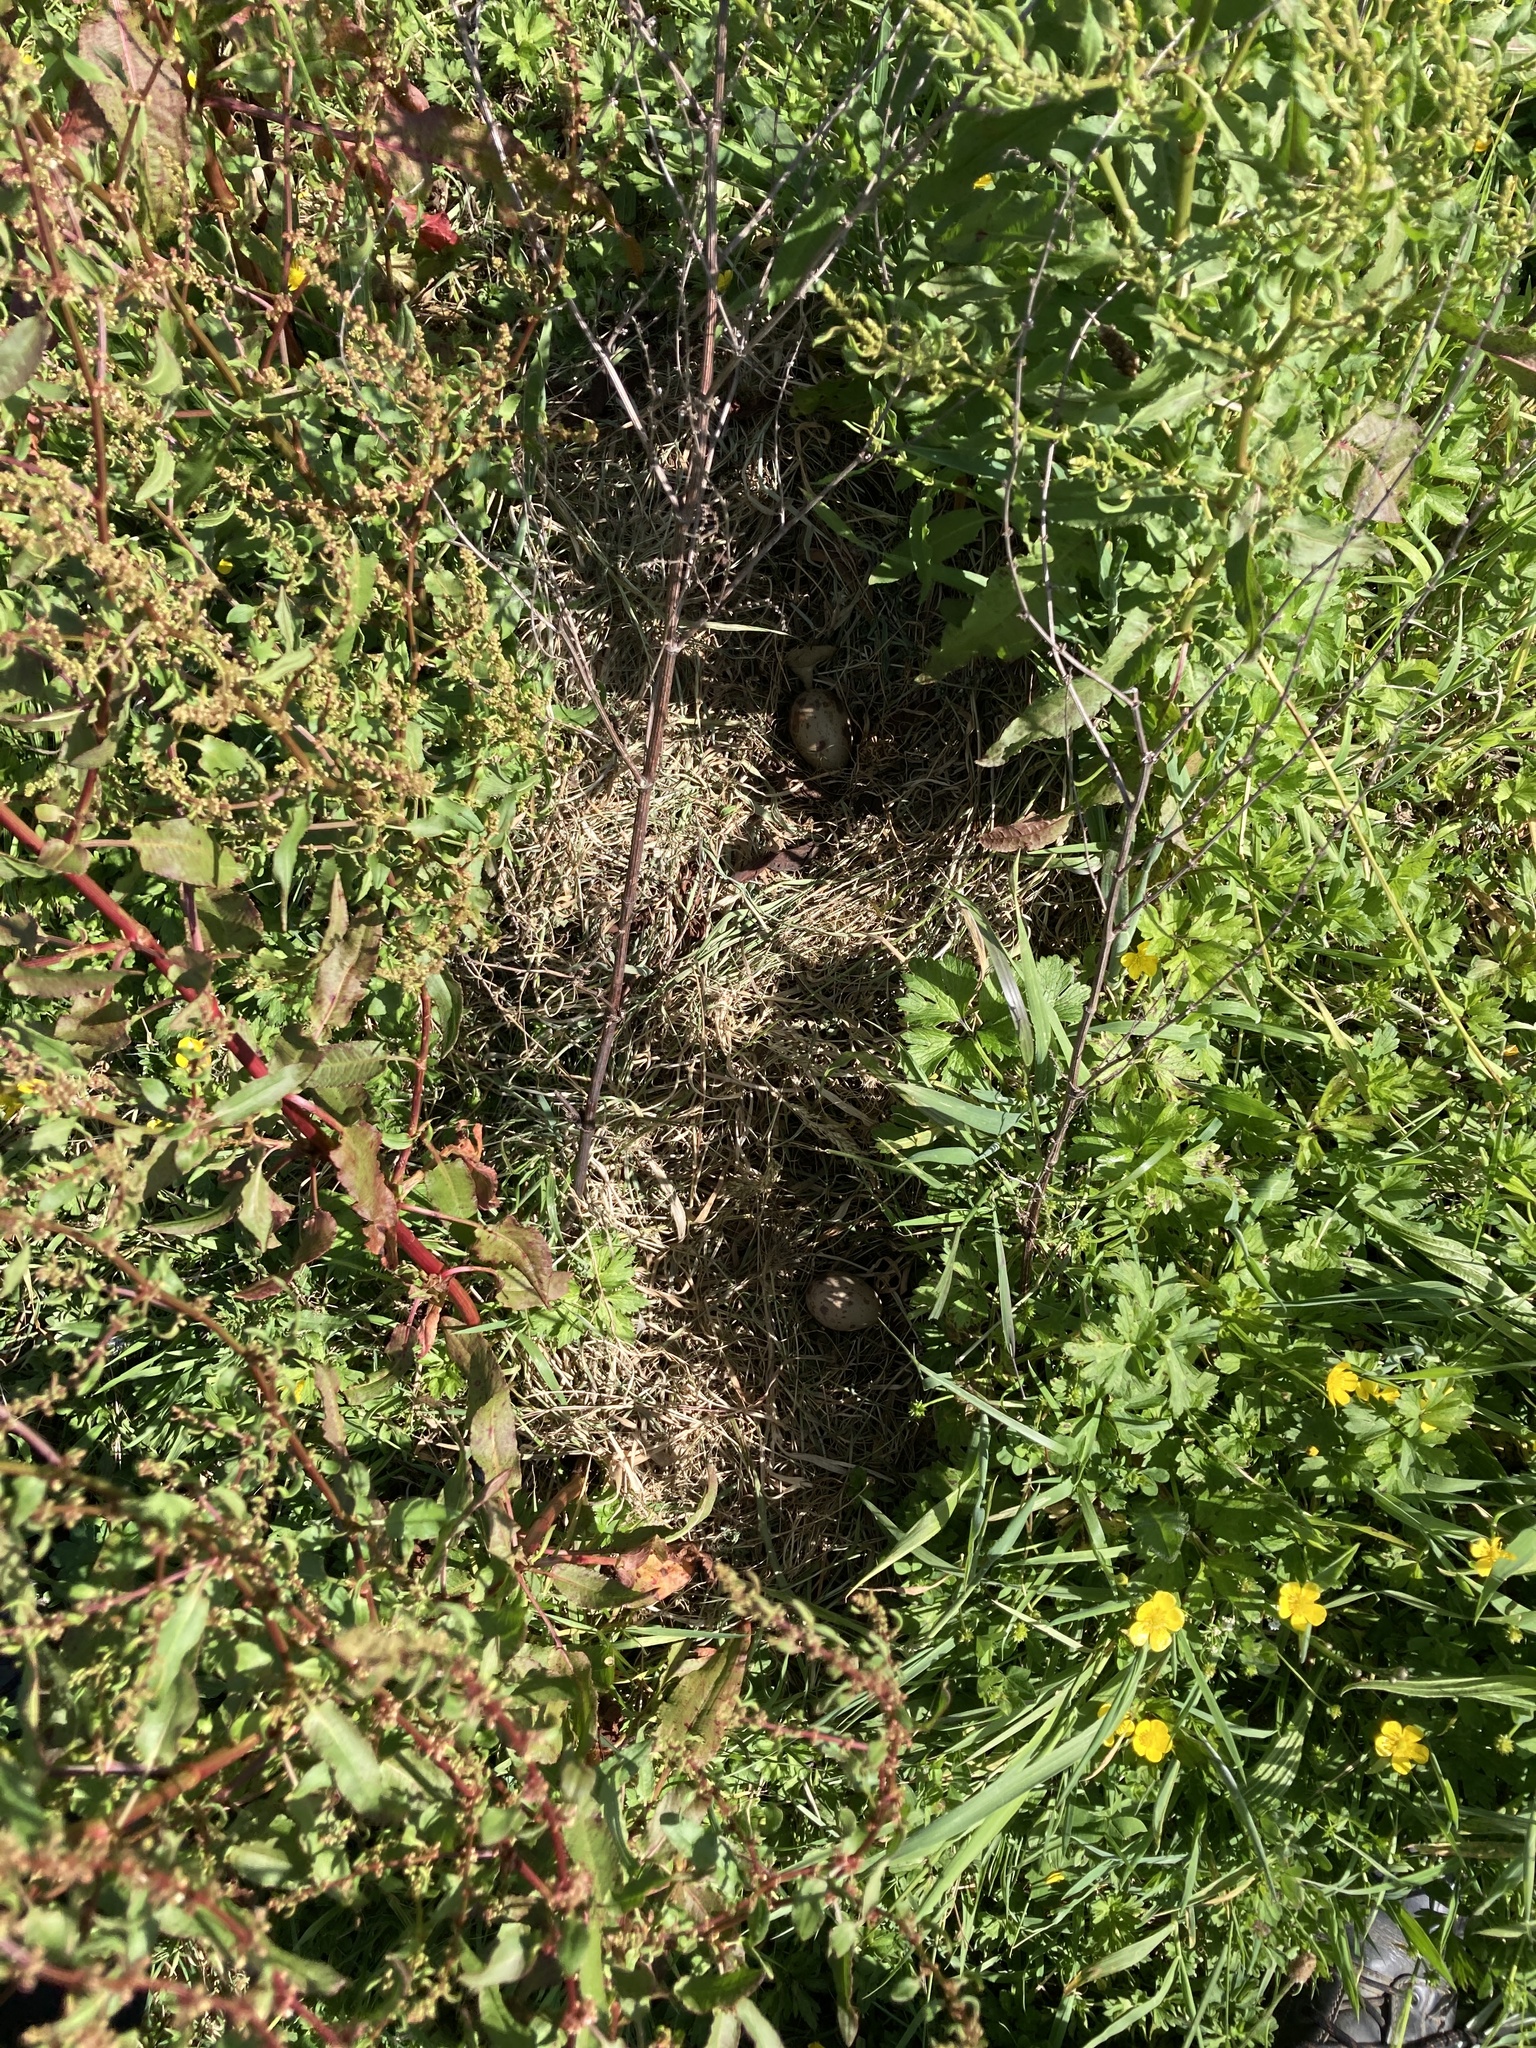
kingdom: Animalia
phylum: Chordata
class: Aves
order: Gruiformes
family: Rallidae
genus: Porphyrio
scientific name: Porphyrio melanotus
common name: Australasian swamphen
